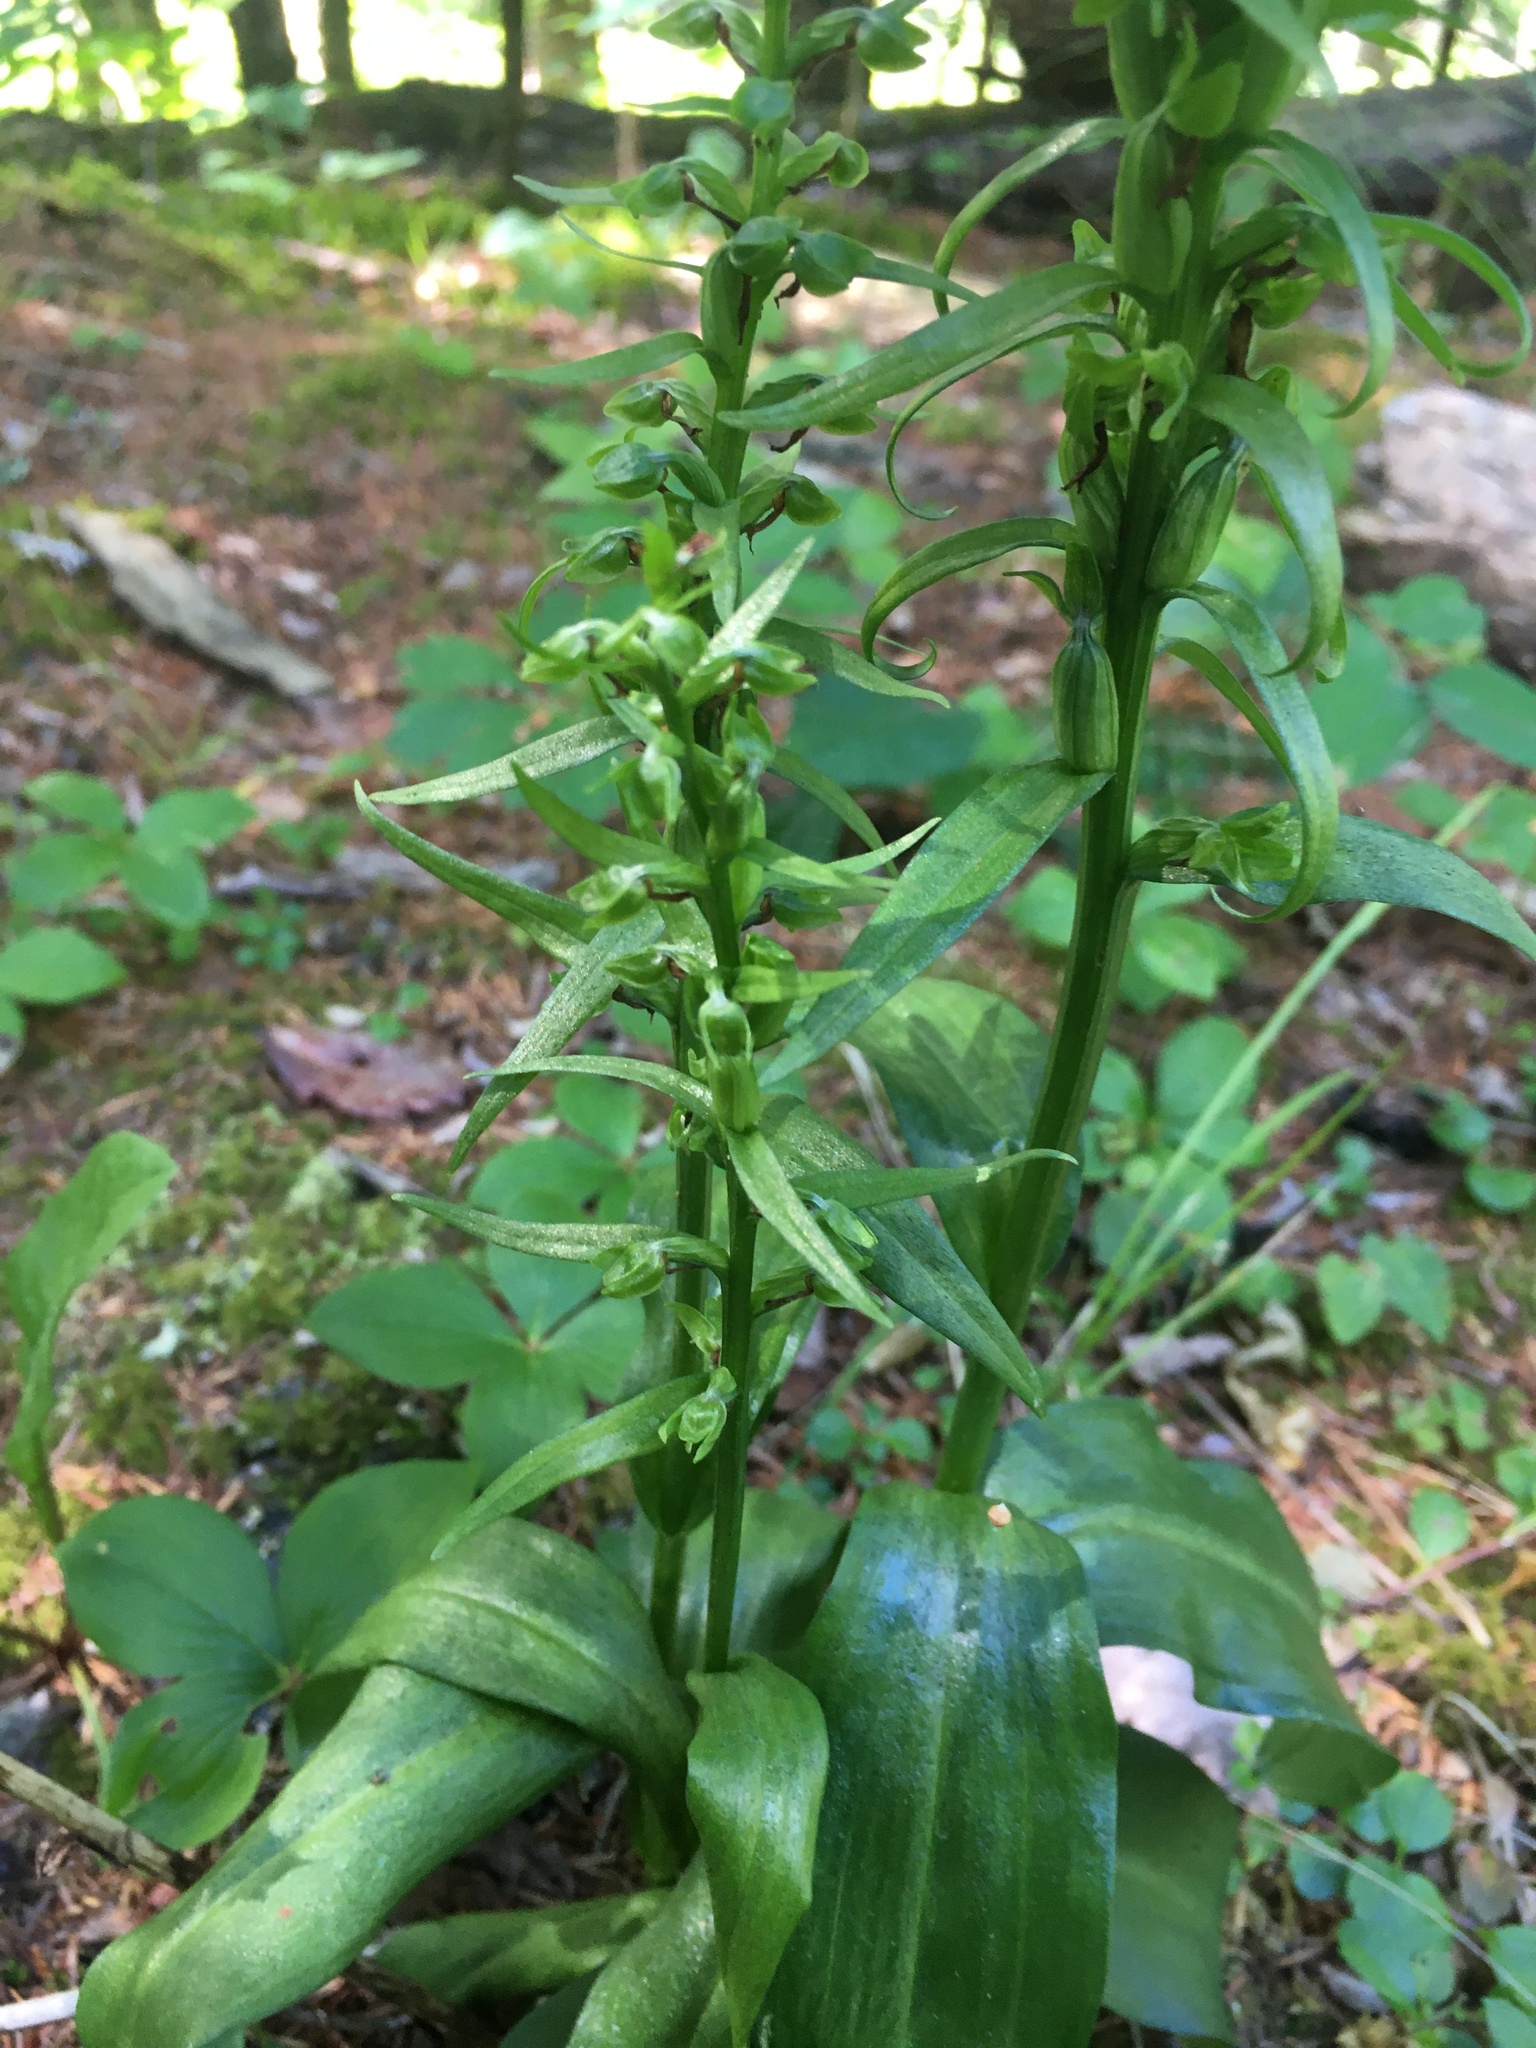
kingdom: Plantae
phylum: Tracheophyta
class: Liliopsida
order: Asparagales
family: Orchidaceae
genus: Dactylorhiza
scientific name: Dactylorhiza viridis
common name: Longbract frog orchid
